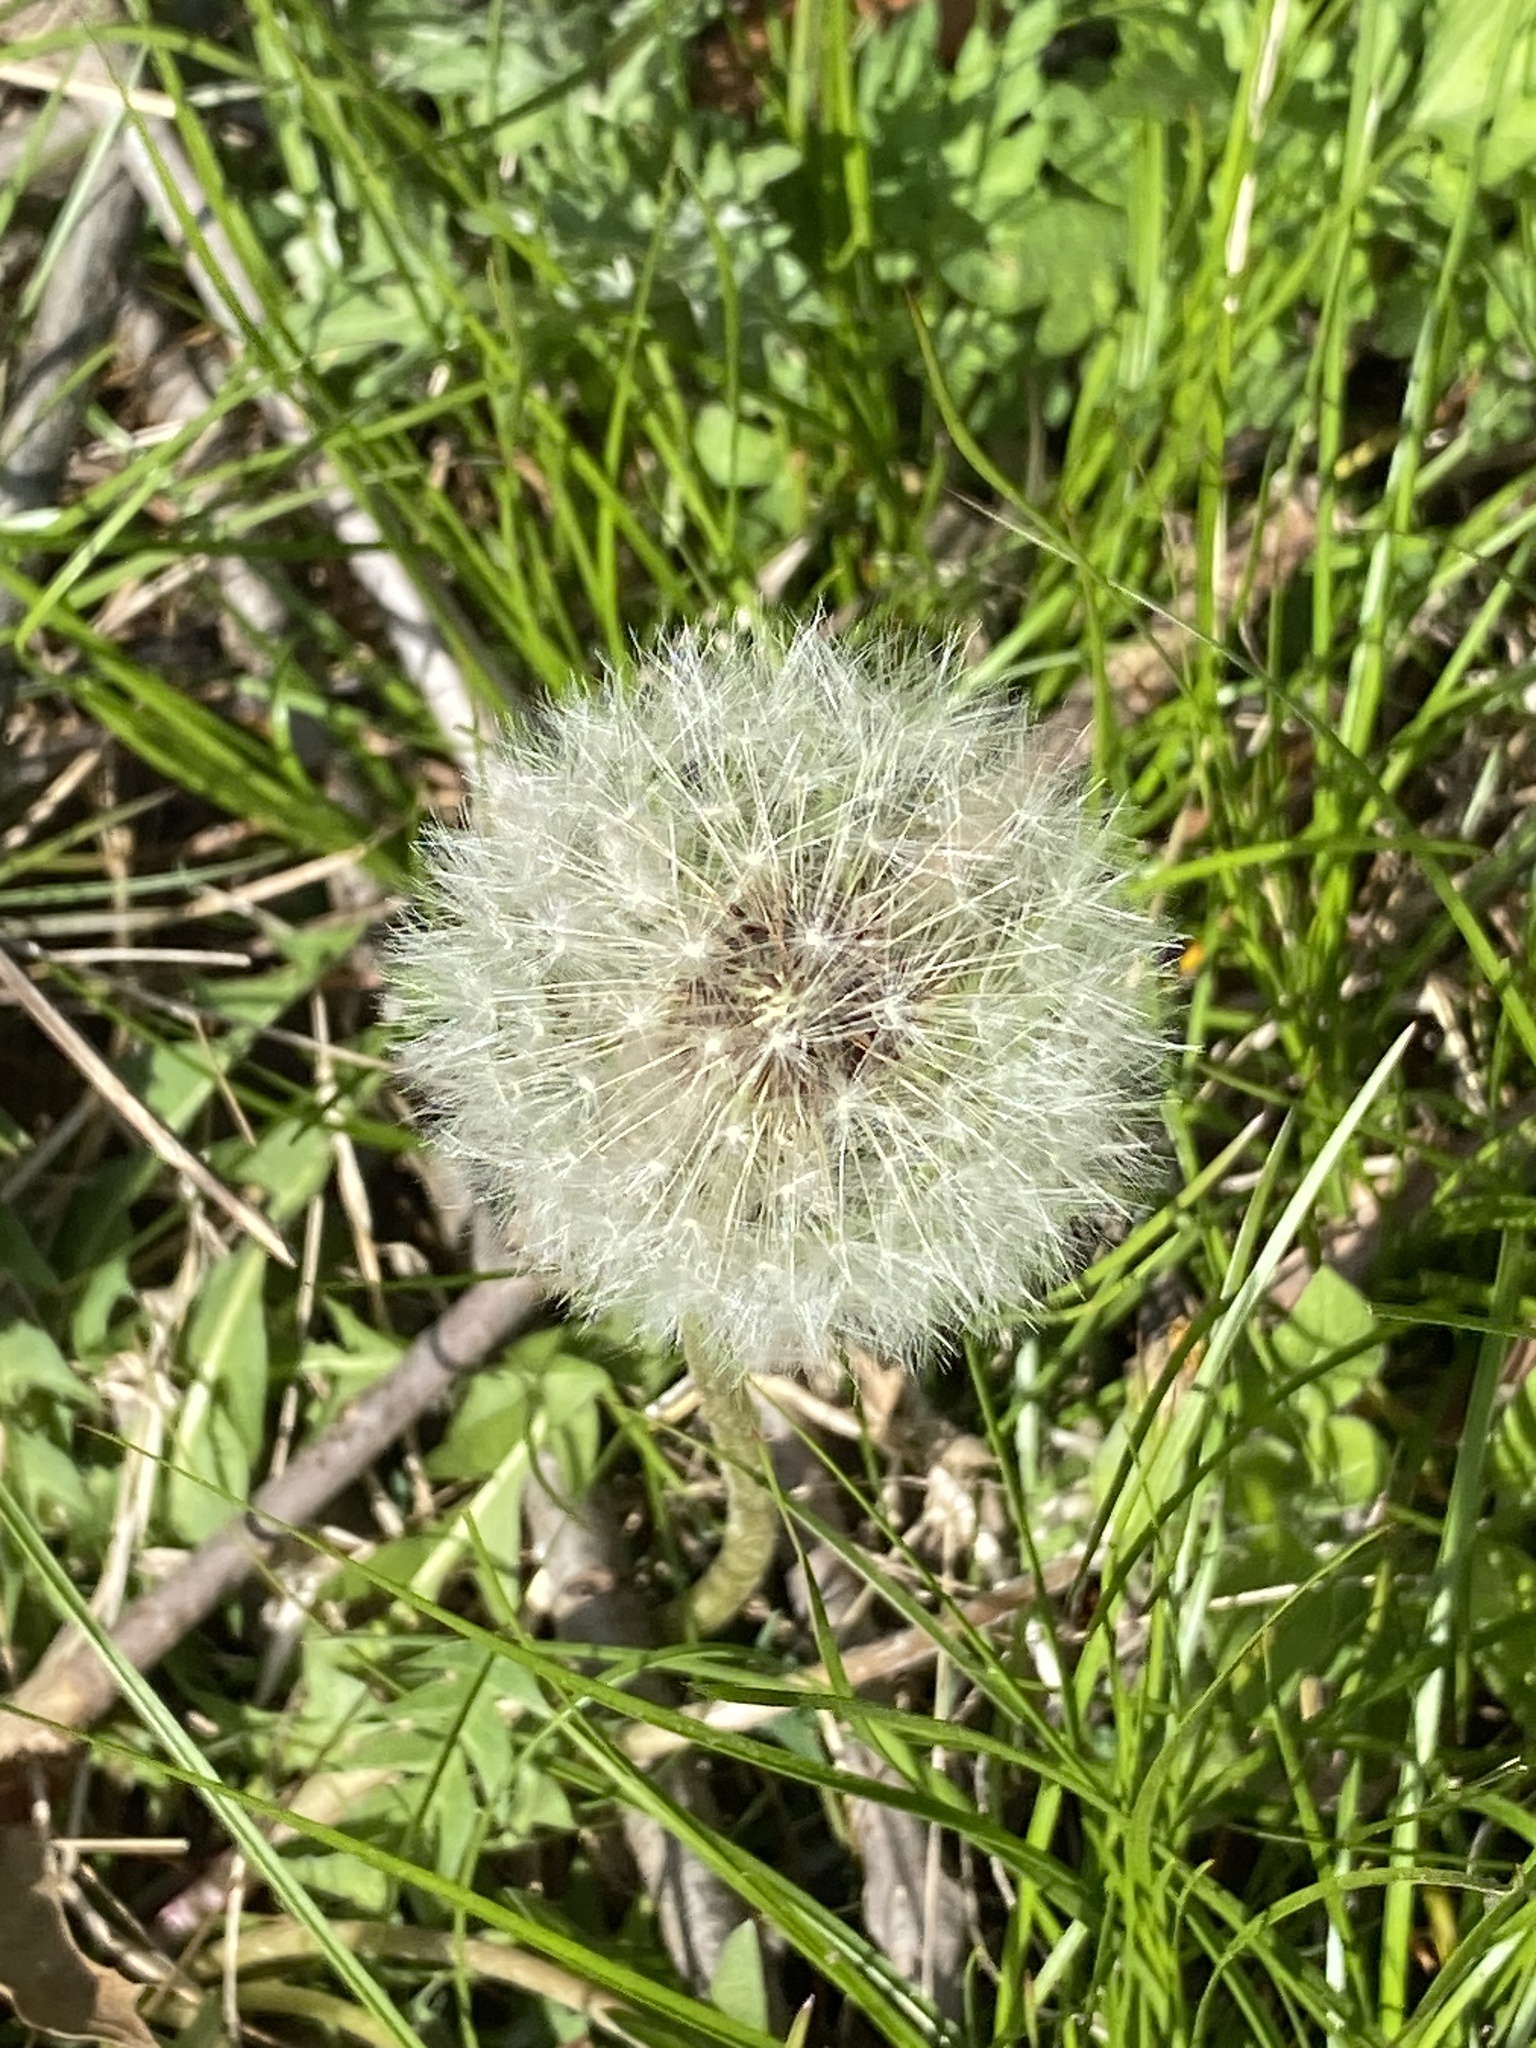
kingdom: Plantae
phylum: Tracheophyta
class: Magnoliopsida
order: Asterales
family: Asteraceae
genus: Taraxacum
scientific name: Taraxacum officinale
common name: Common dandelion
